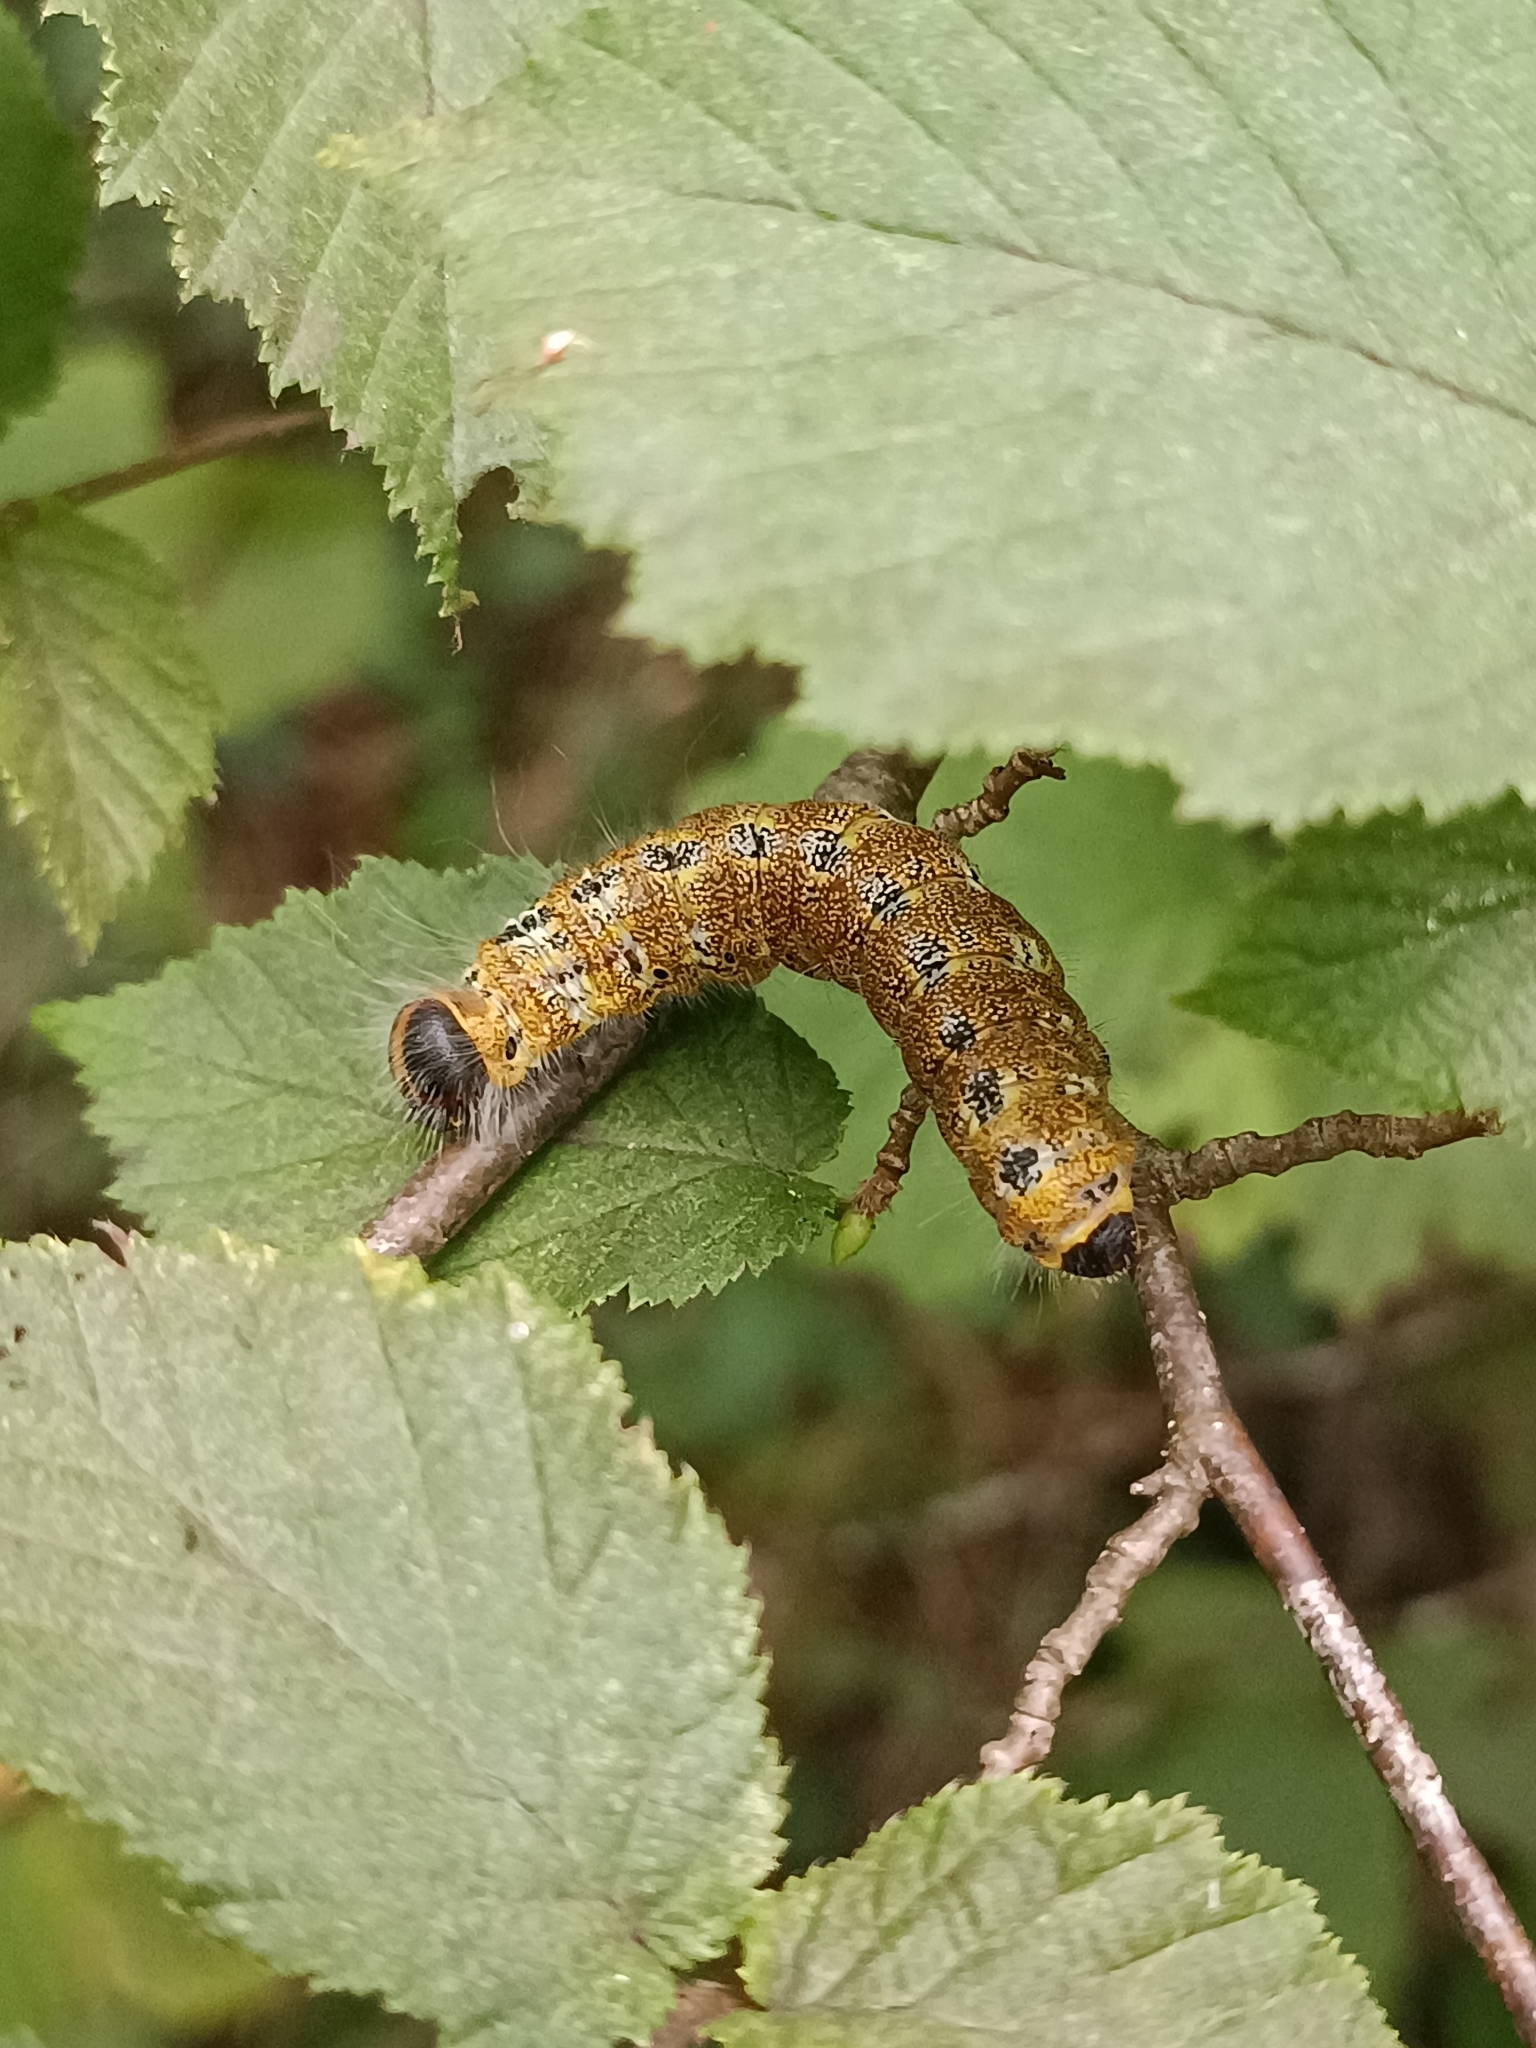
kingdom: Animalia
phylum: Arthropoda
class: Insecta
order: Lepidoptera
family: Notodontidae
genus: Phalera
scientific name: Phalera bucephala
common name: Buff-tip
